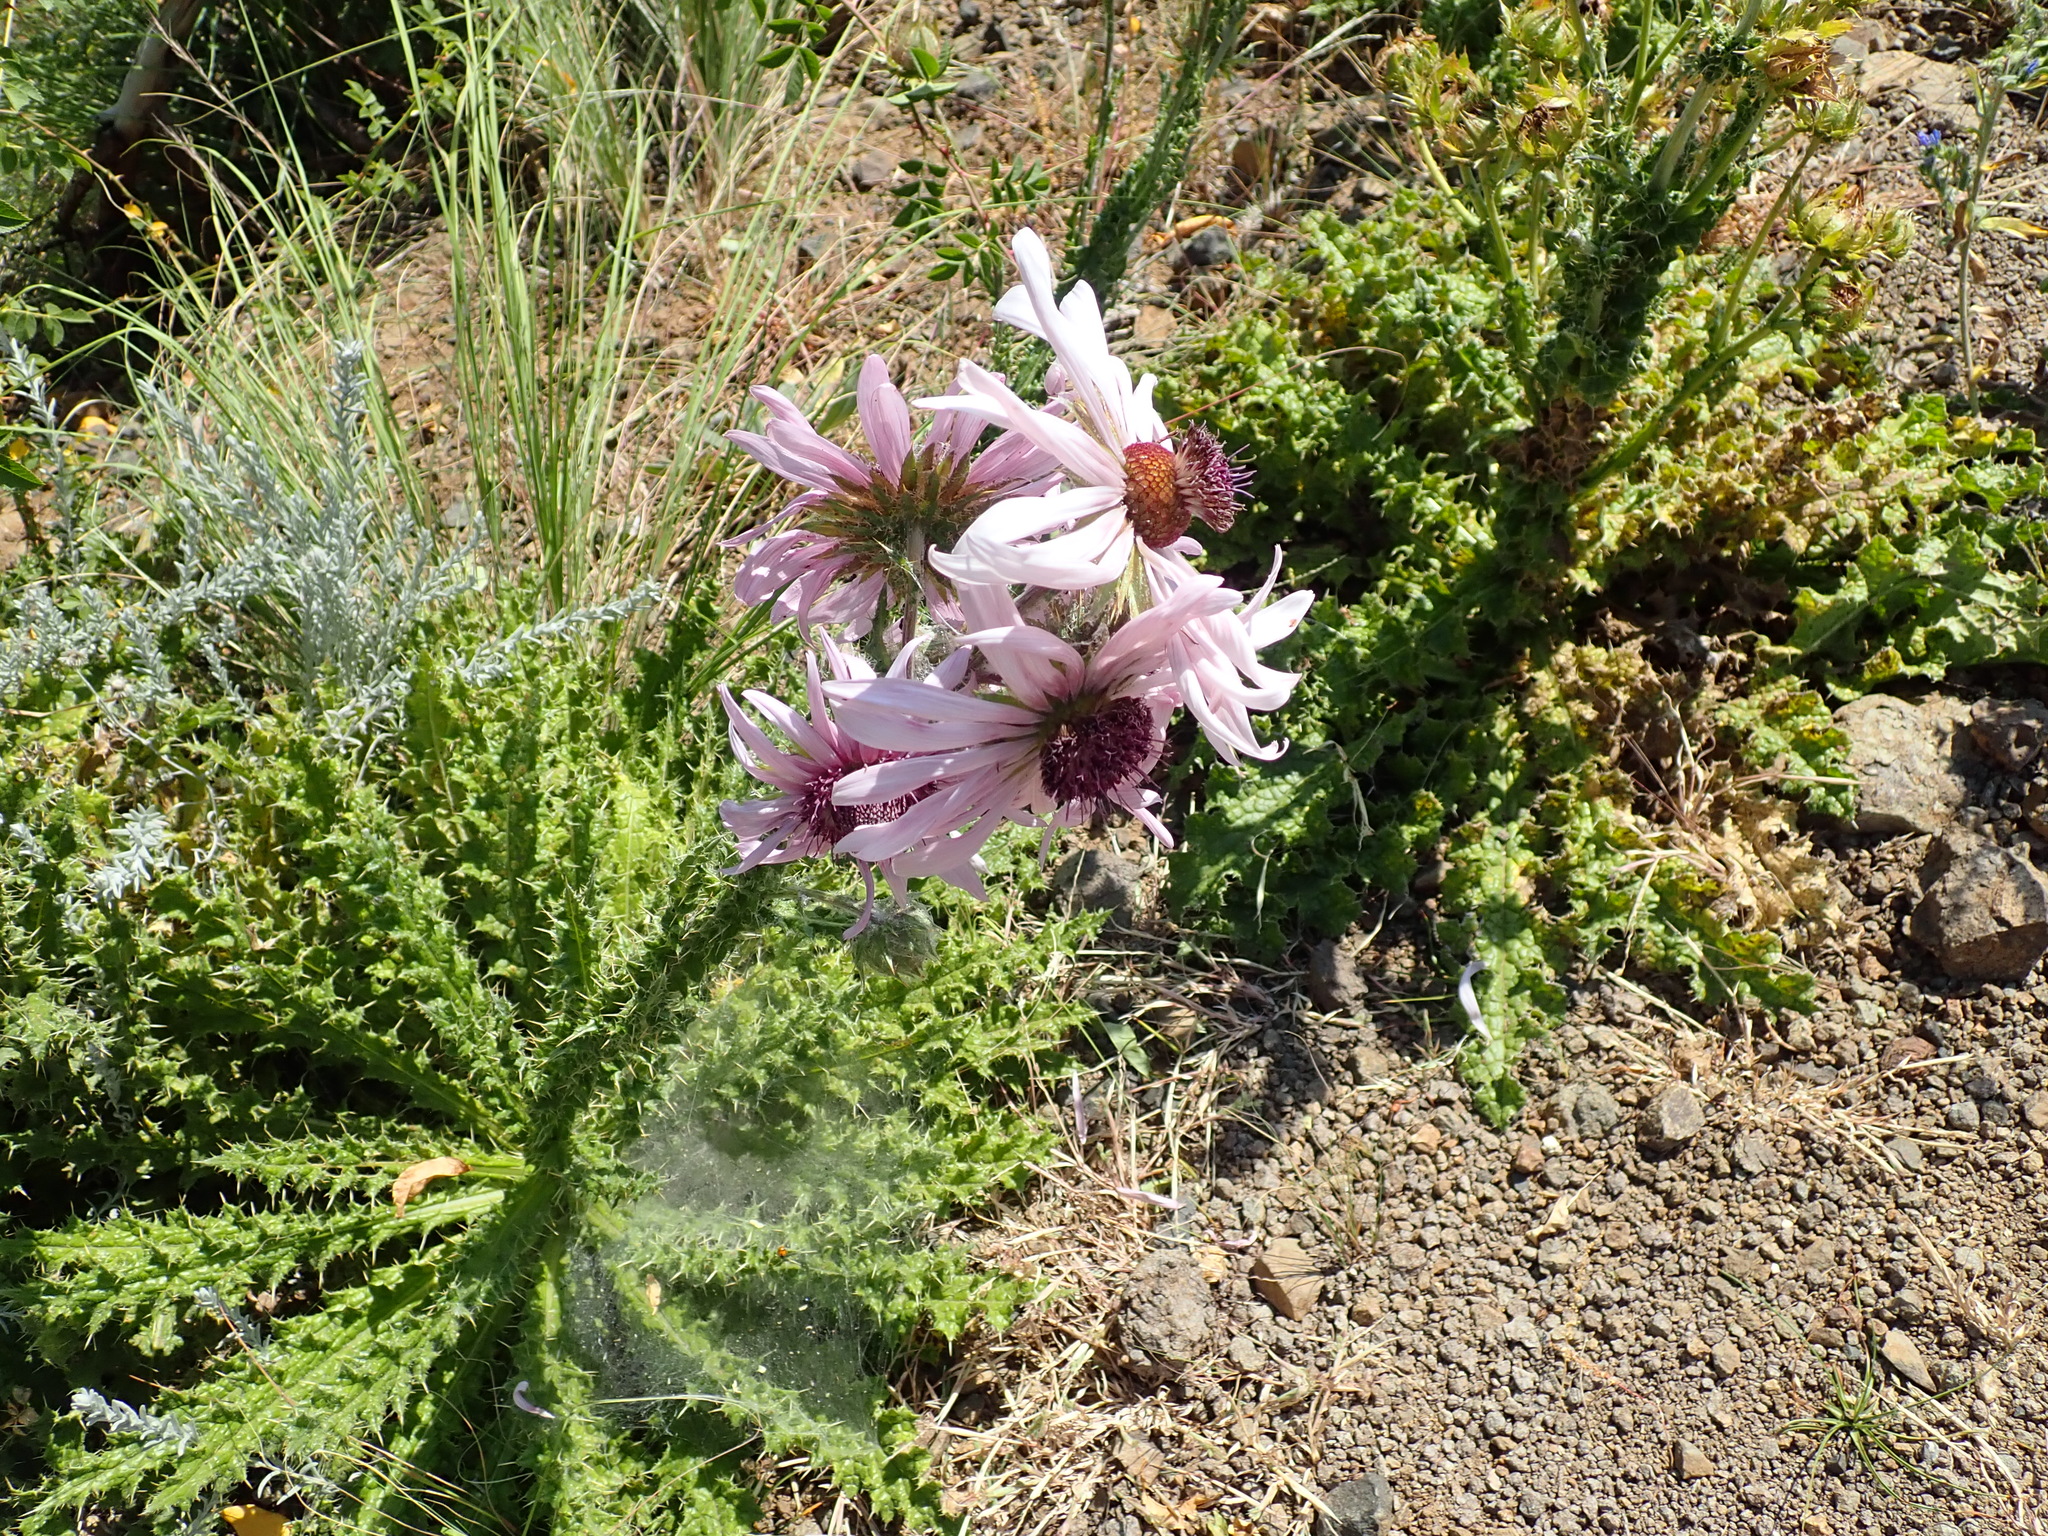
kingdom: Plantae
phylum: Tracheophyta
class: Magnoliopsida
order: Asterales
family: Asteraceae
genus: Berkheya
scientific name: Berkheya purpurea
